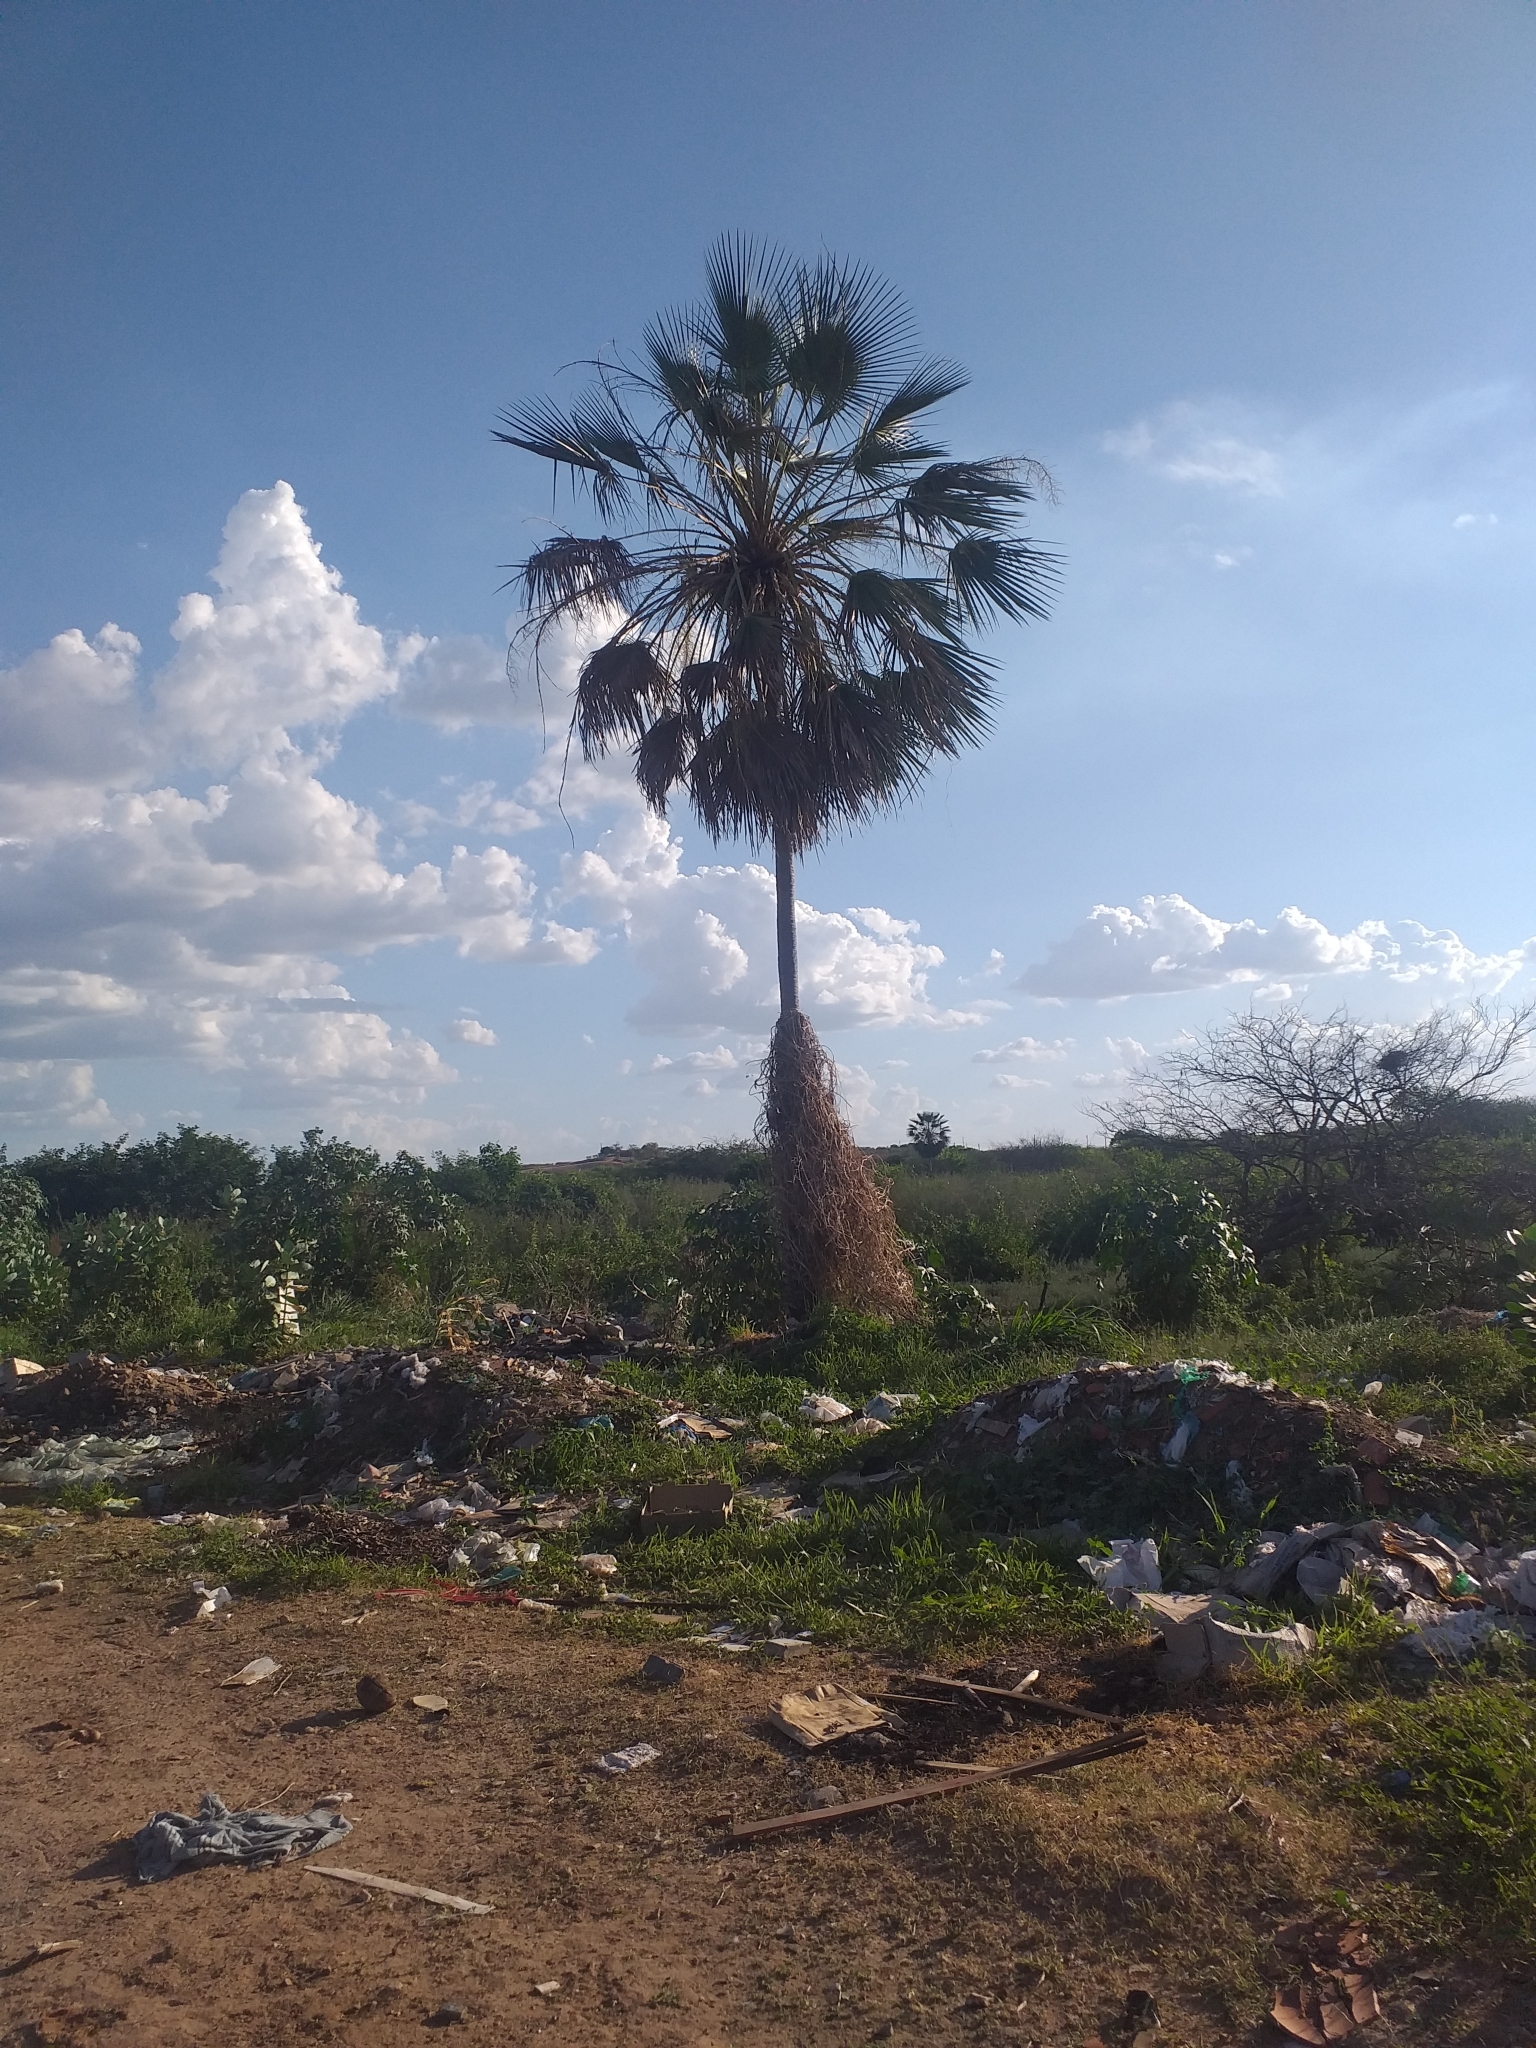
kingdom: Plantae
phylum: Tracheophyta
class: Liliopsida
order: Arecales
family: Arecaceae
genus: Copernicia
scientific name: Copernicia prunifera
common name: Carnauba palm
